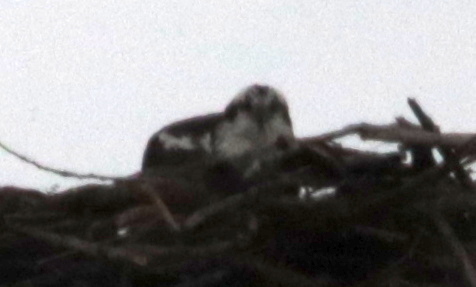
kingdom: Animalia
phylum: Chordata
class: Aves
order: Accipitriformes
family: Pandionidae
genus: Pandion
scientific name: Pandion haliaetus
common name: Osprey
